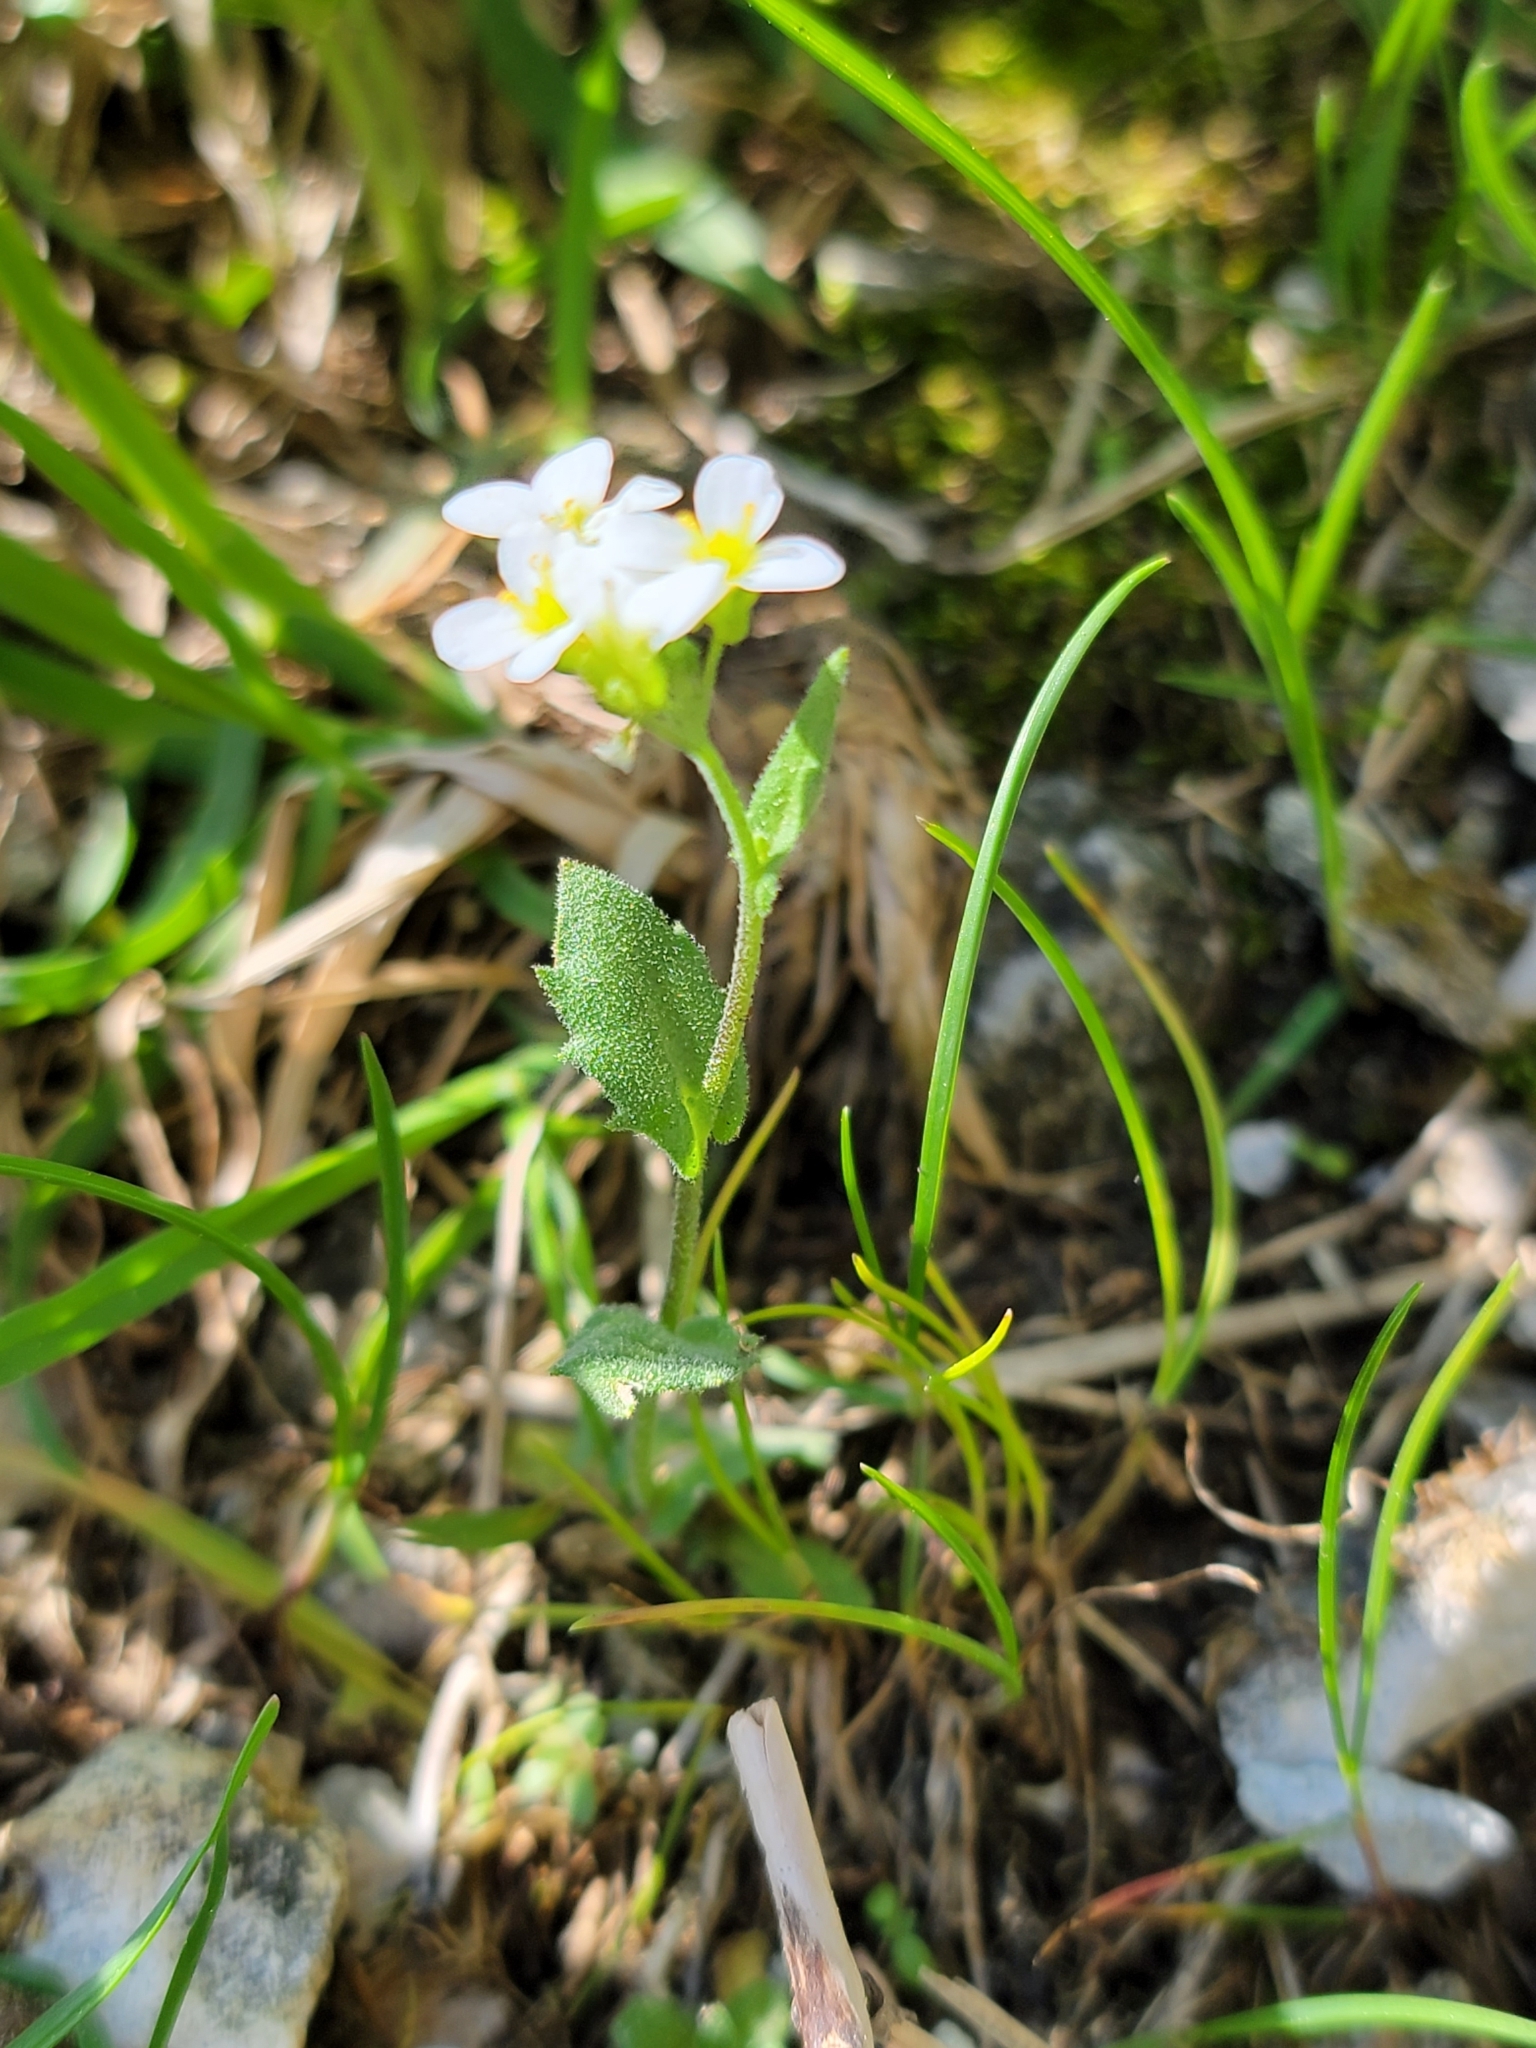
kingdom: Plantae
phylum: Tracheophyta
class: Magnoliopsida
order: Brassicales
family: Brassicaceae
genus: Arabis
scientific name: Arabis alpina
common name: Alpine rock-cress
